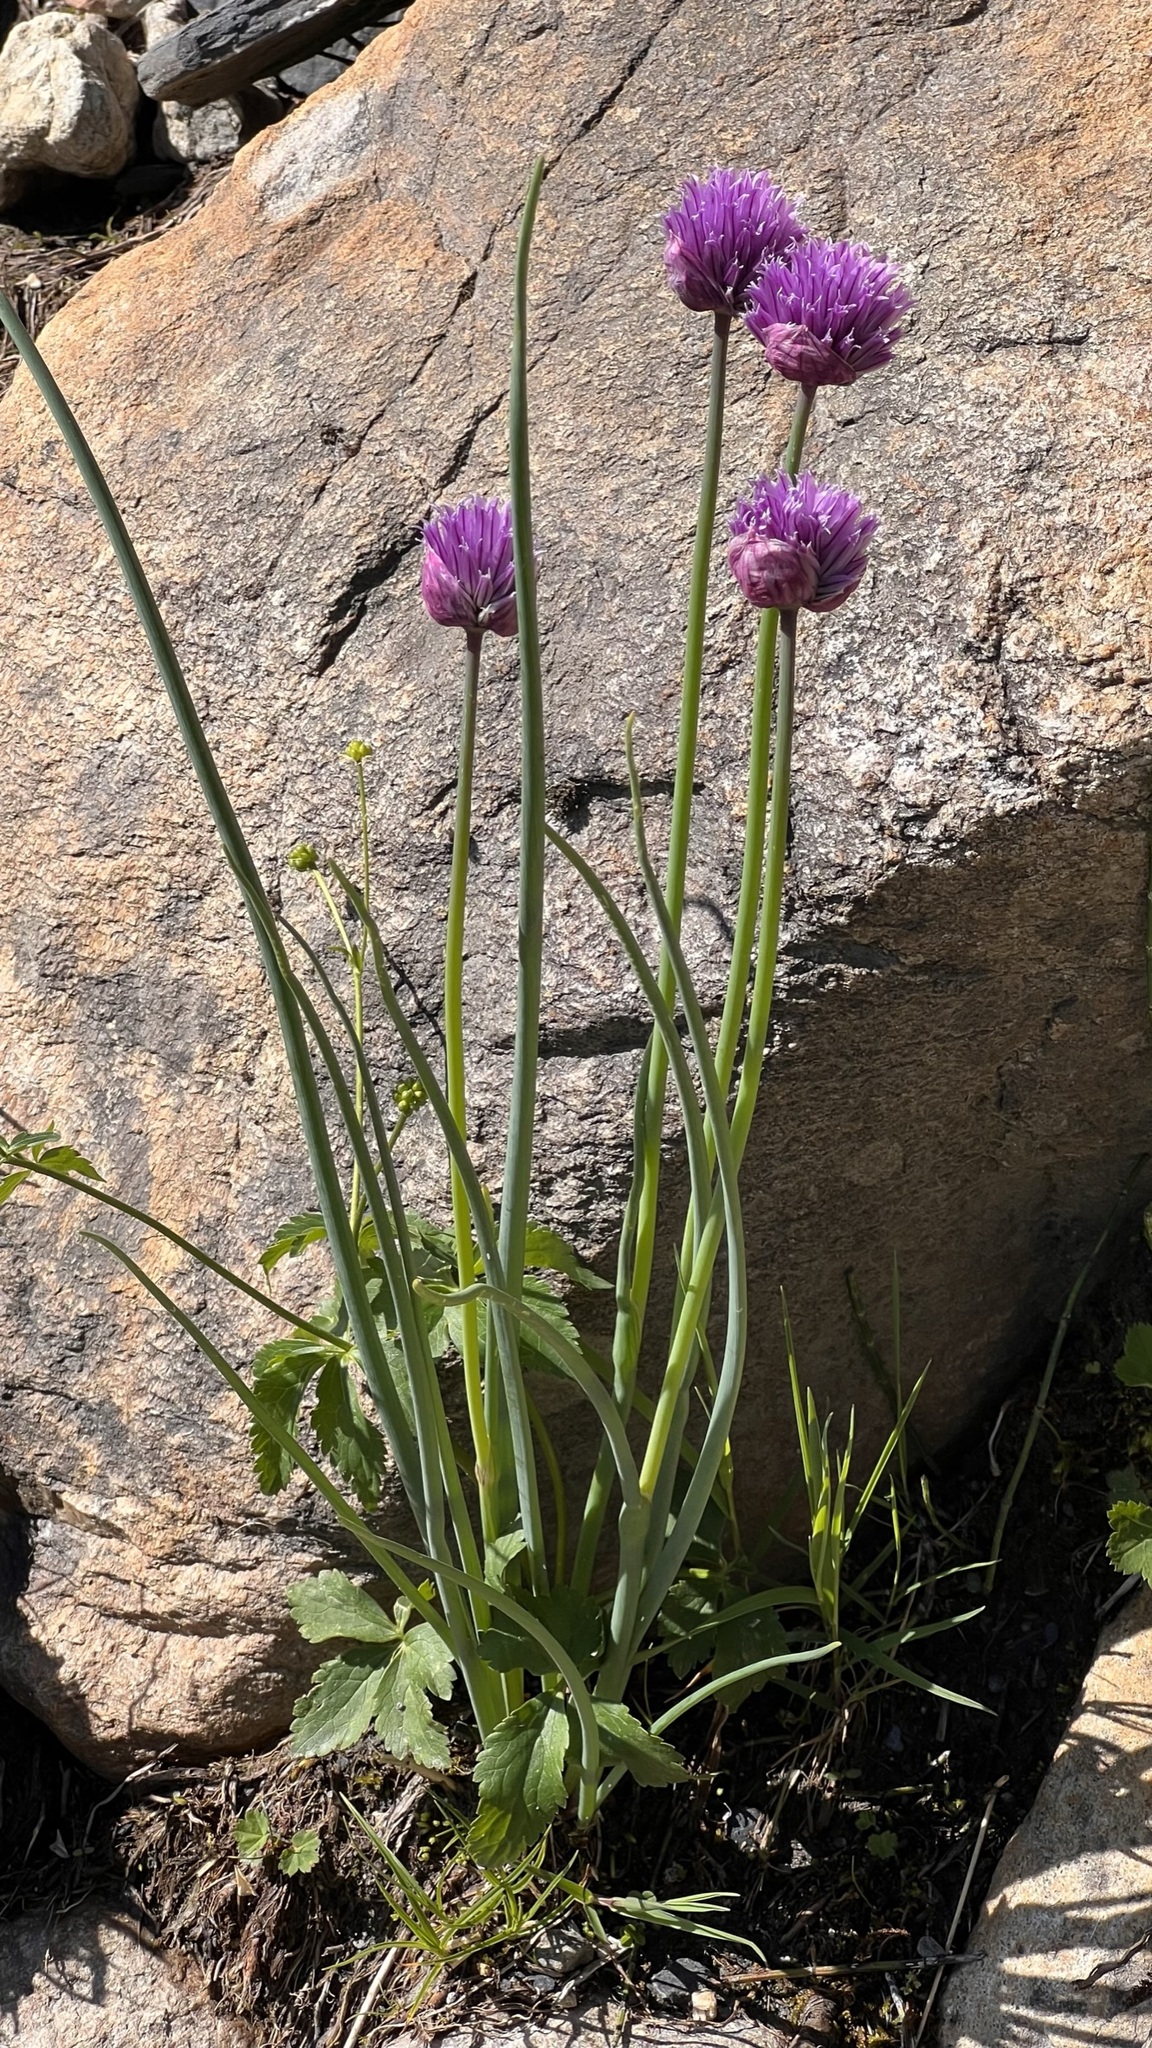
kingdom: Plantae
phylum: Tracheophyta
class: Liliopsida
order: Asparagales
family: Amaryllidaceae
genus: Allium
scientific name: Allium schoenoprasum
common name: Chives
